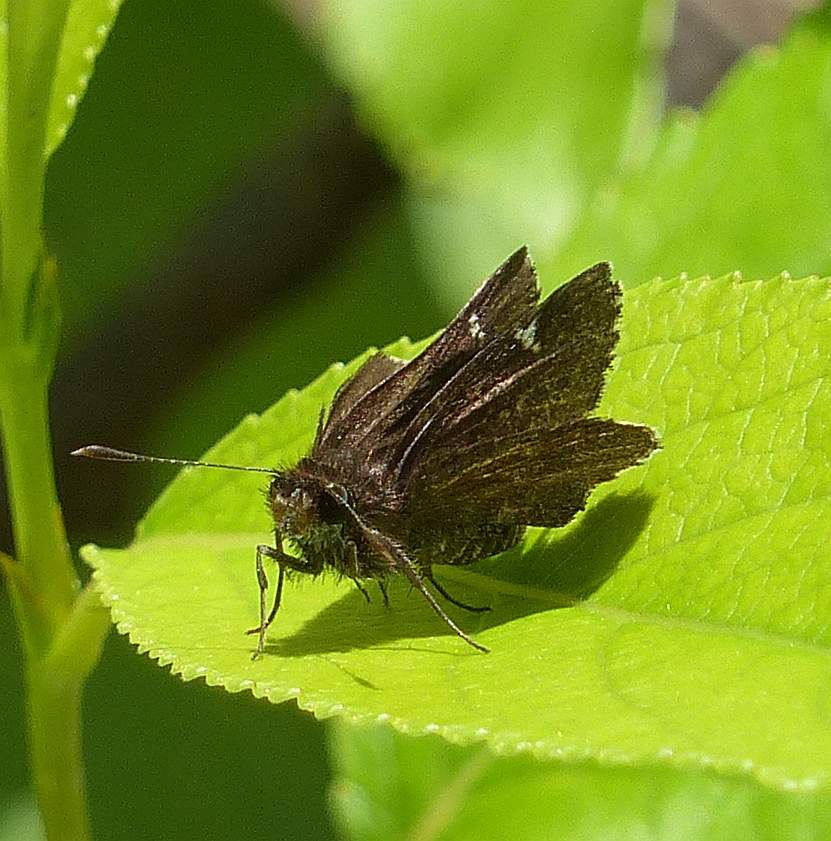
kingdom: Animalia
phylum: Arthropoda
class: Insecta
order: Lepidoptera
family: Hesperiidae
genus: Mastor
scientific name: Mastor vialis
